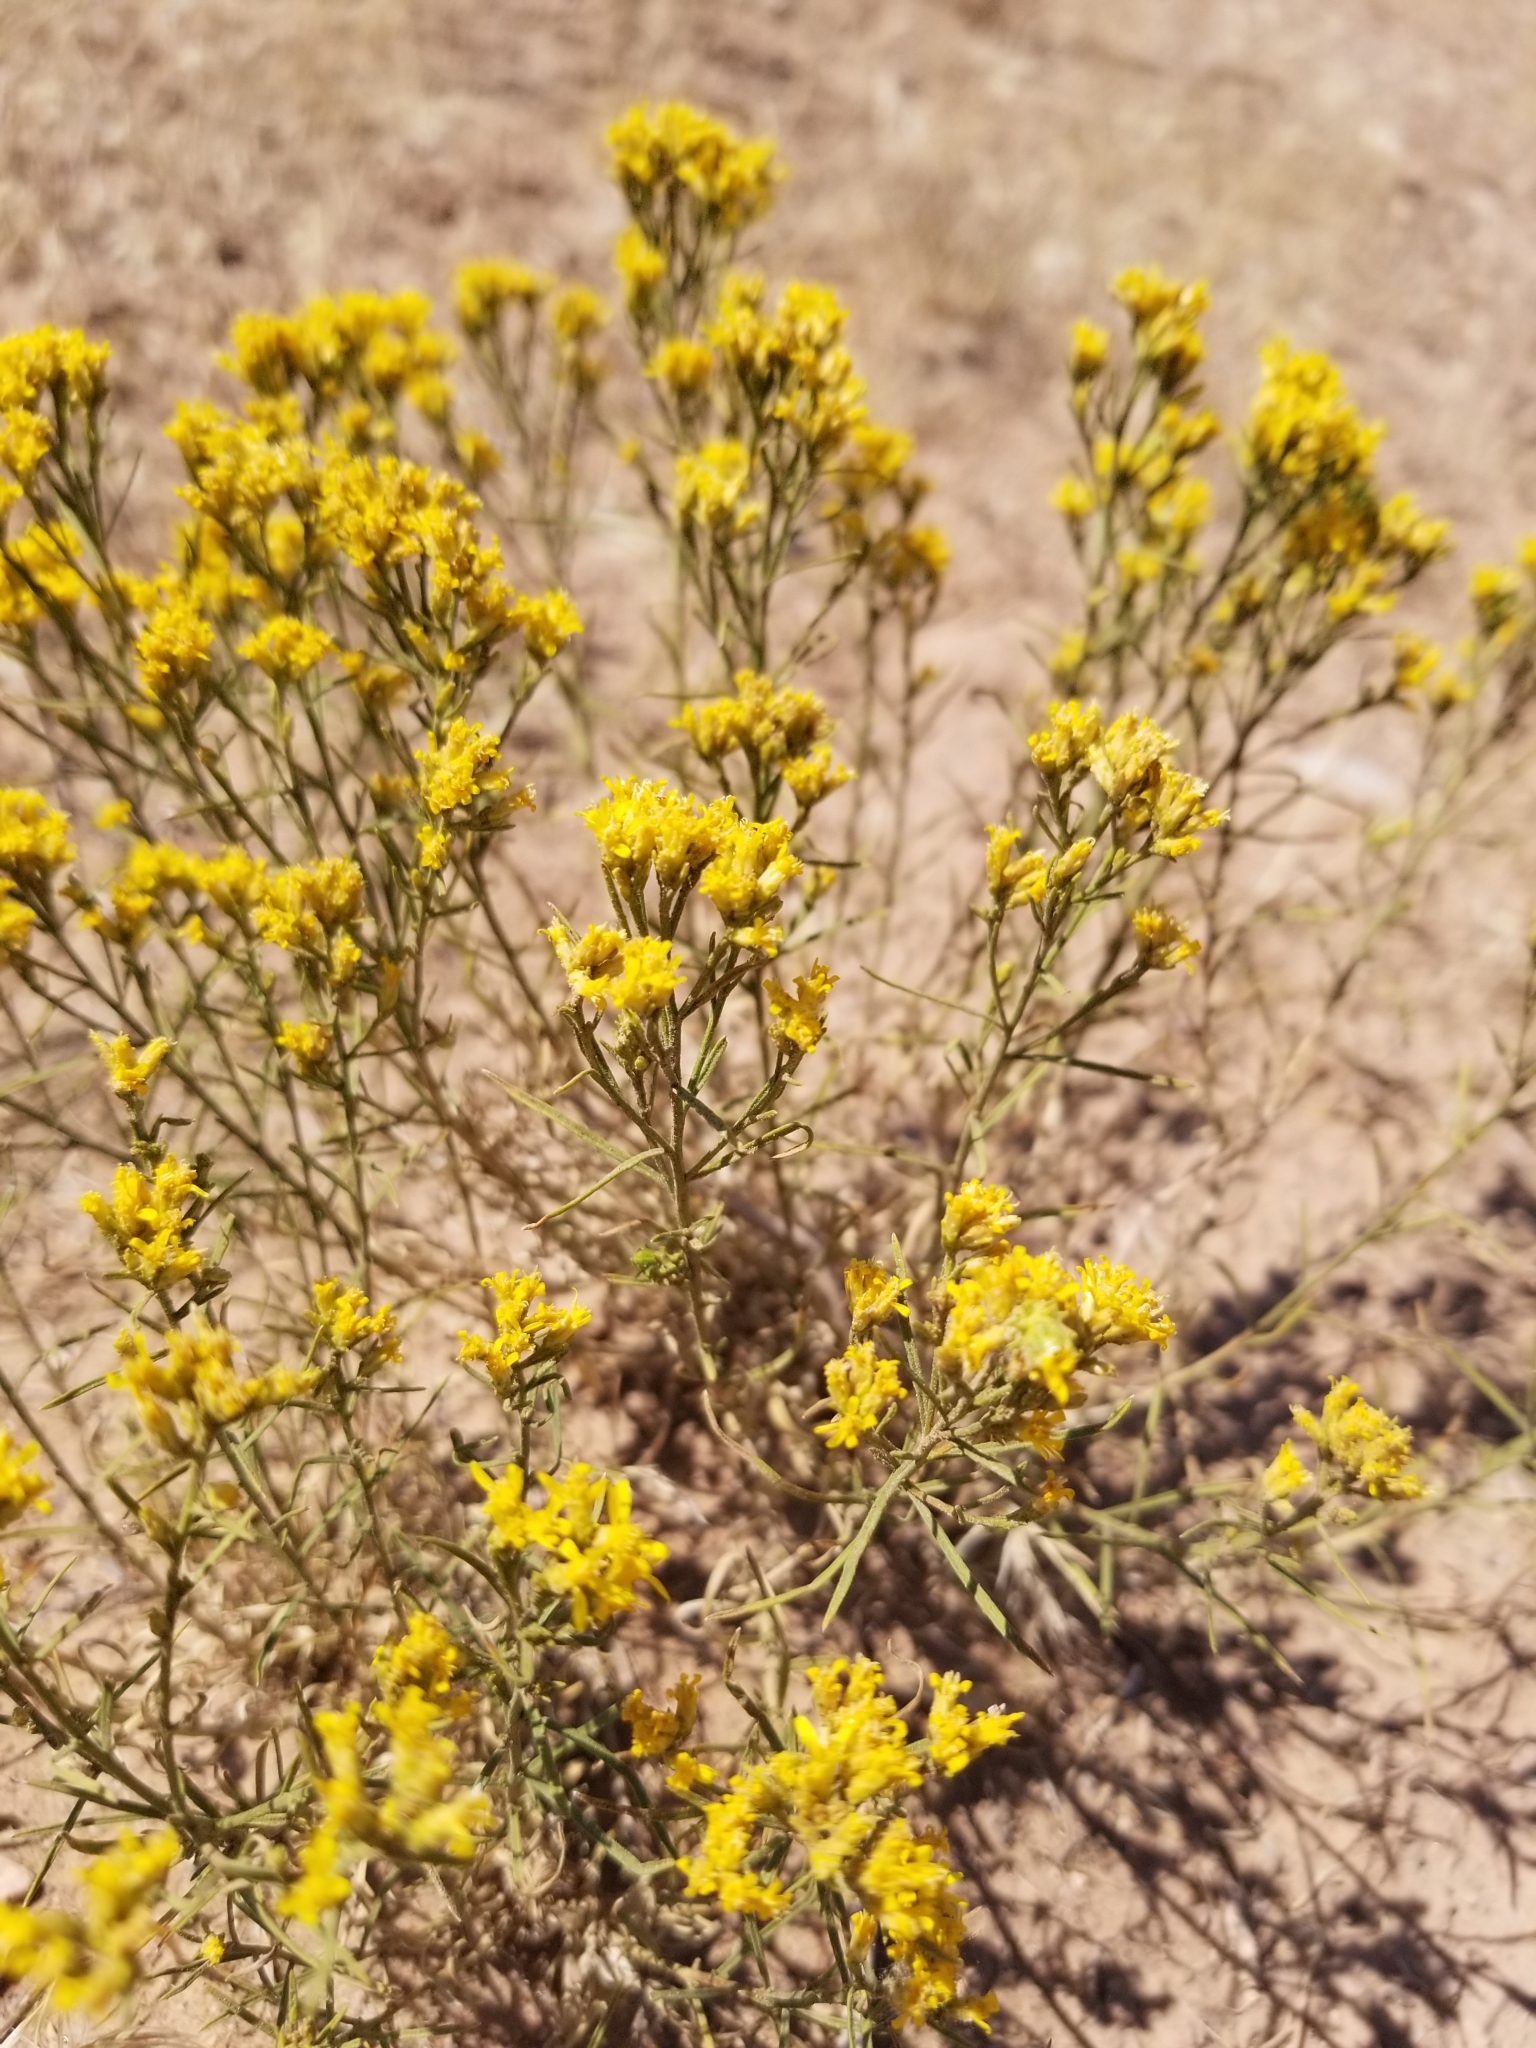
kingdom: Plantae
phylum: Tracheophyta
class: Magnoliopsida
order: Asterales
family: Asteraceae
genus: Gutierrezia
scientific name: Gutierrezia sarothrae
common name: Broom snakeweed
